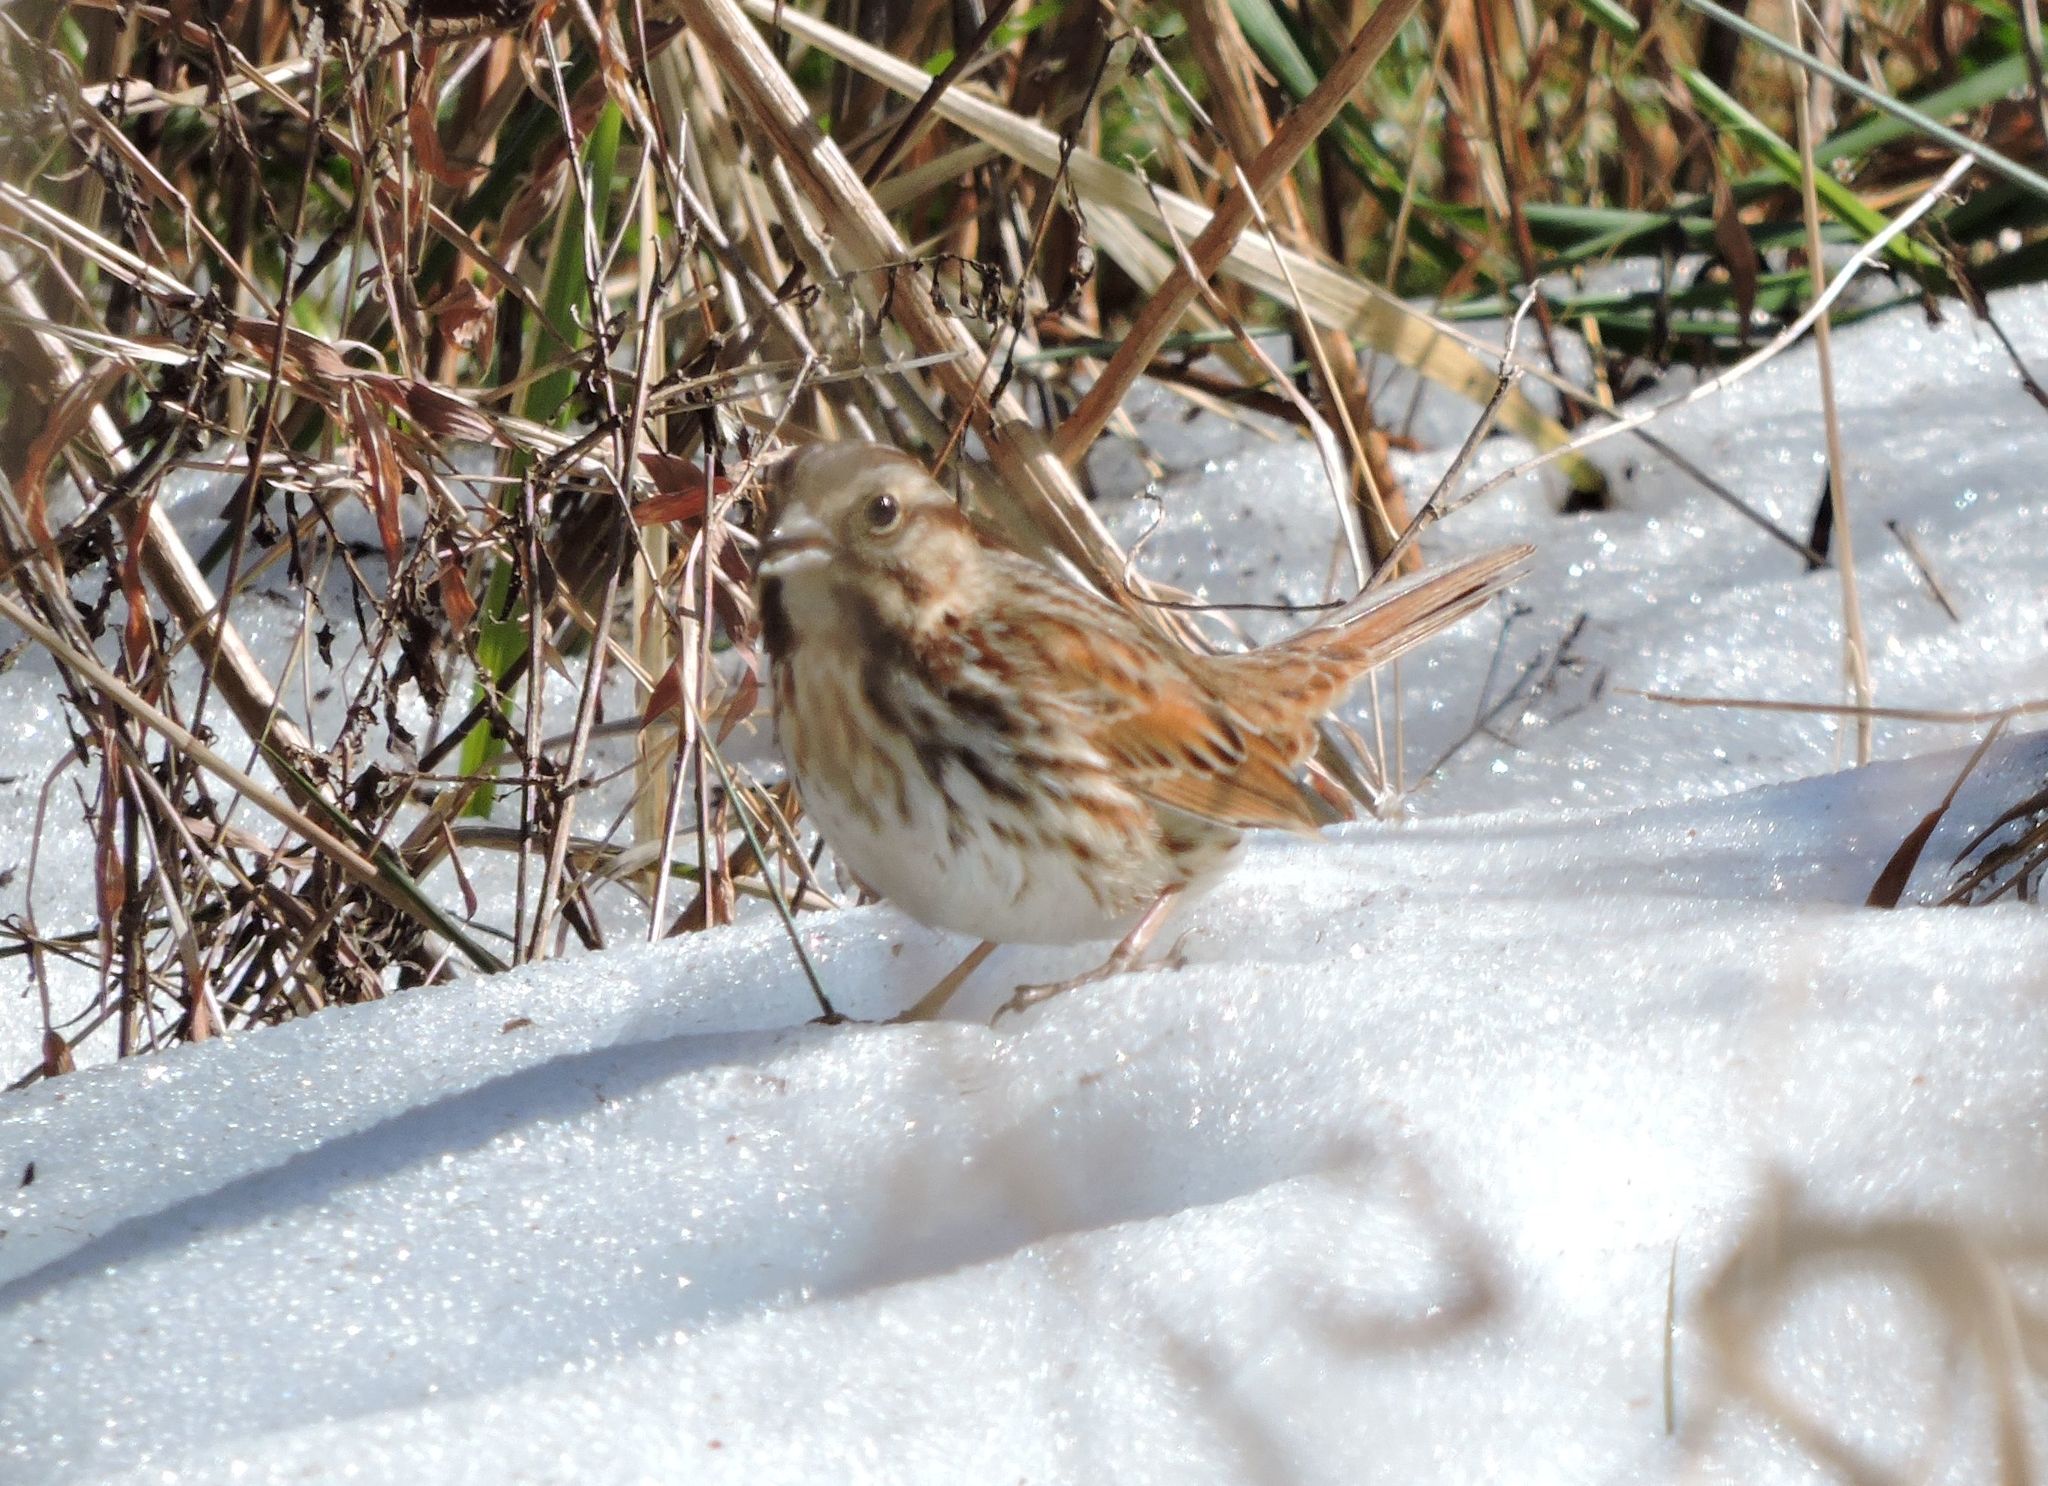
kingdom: Animalia
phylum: Chordata
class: Aves
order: Passeriformes
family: Passerellidae
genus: Melospiza
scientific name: Melospiza melodia
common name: Song sparrow
